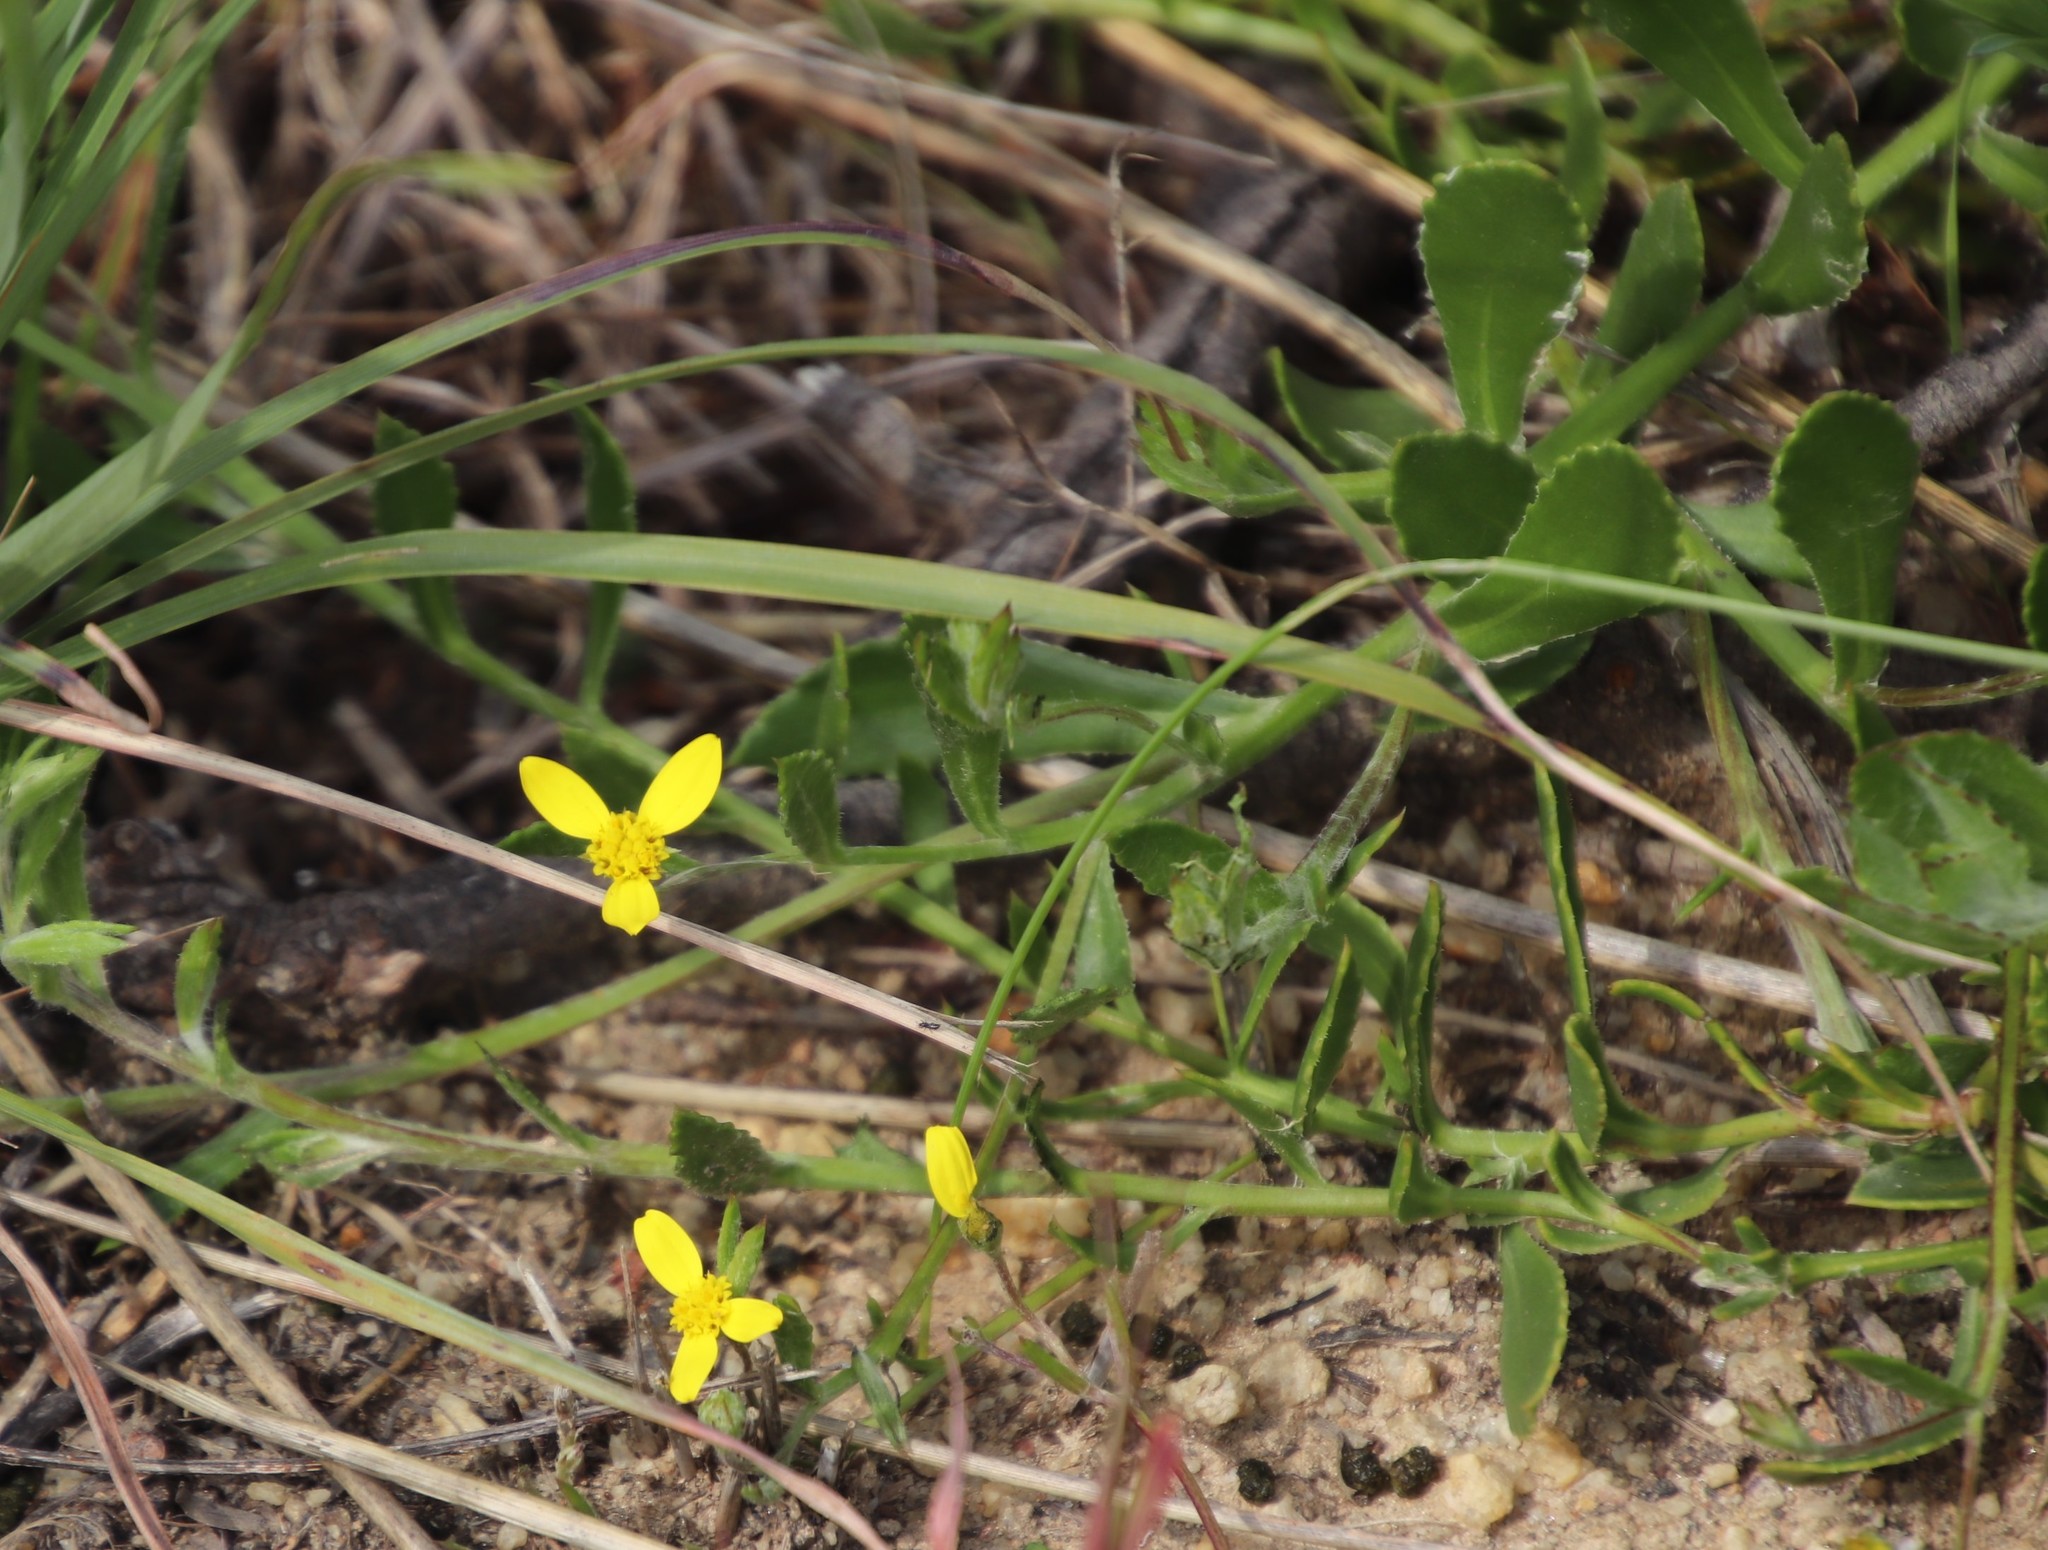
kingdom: Plantae
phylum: Tracheophyta
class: Magnoliopsida
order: Asterales
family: Asteraceae
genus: Osteospermum
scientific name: Osteospermum ciliatum
